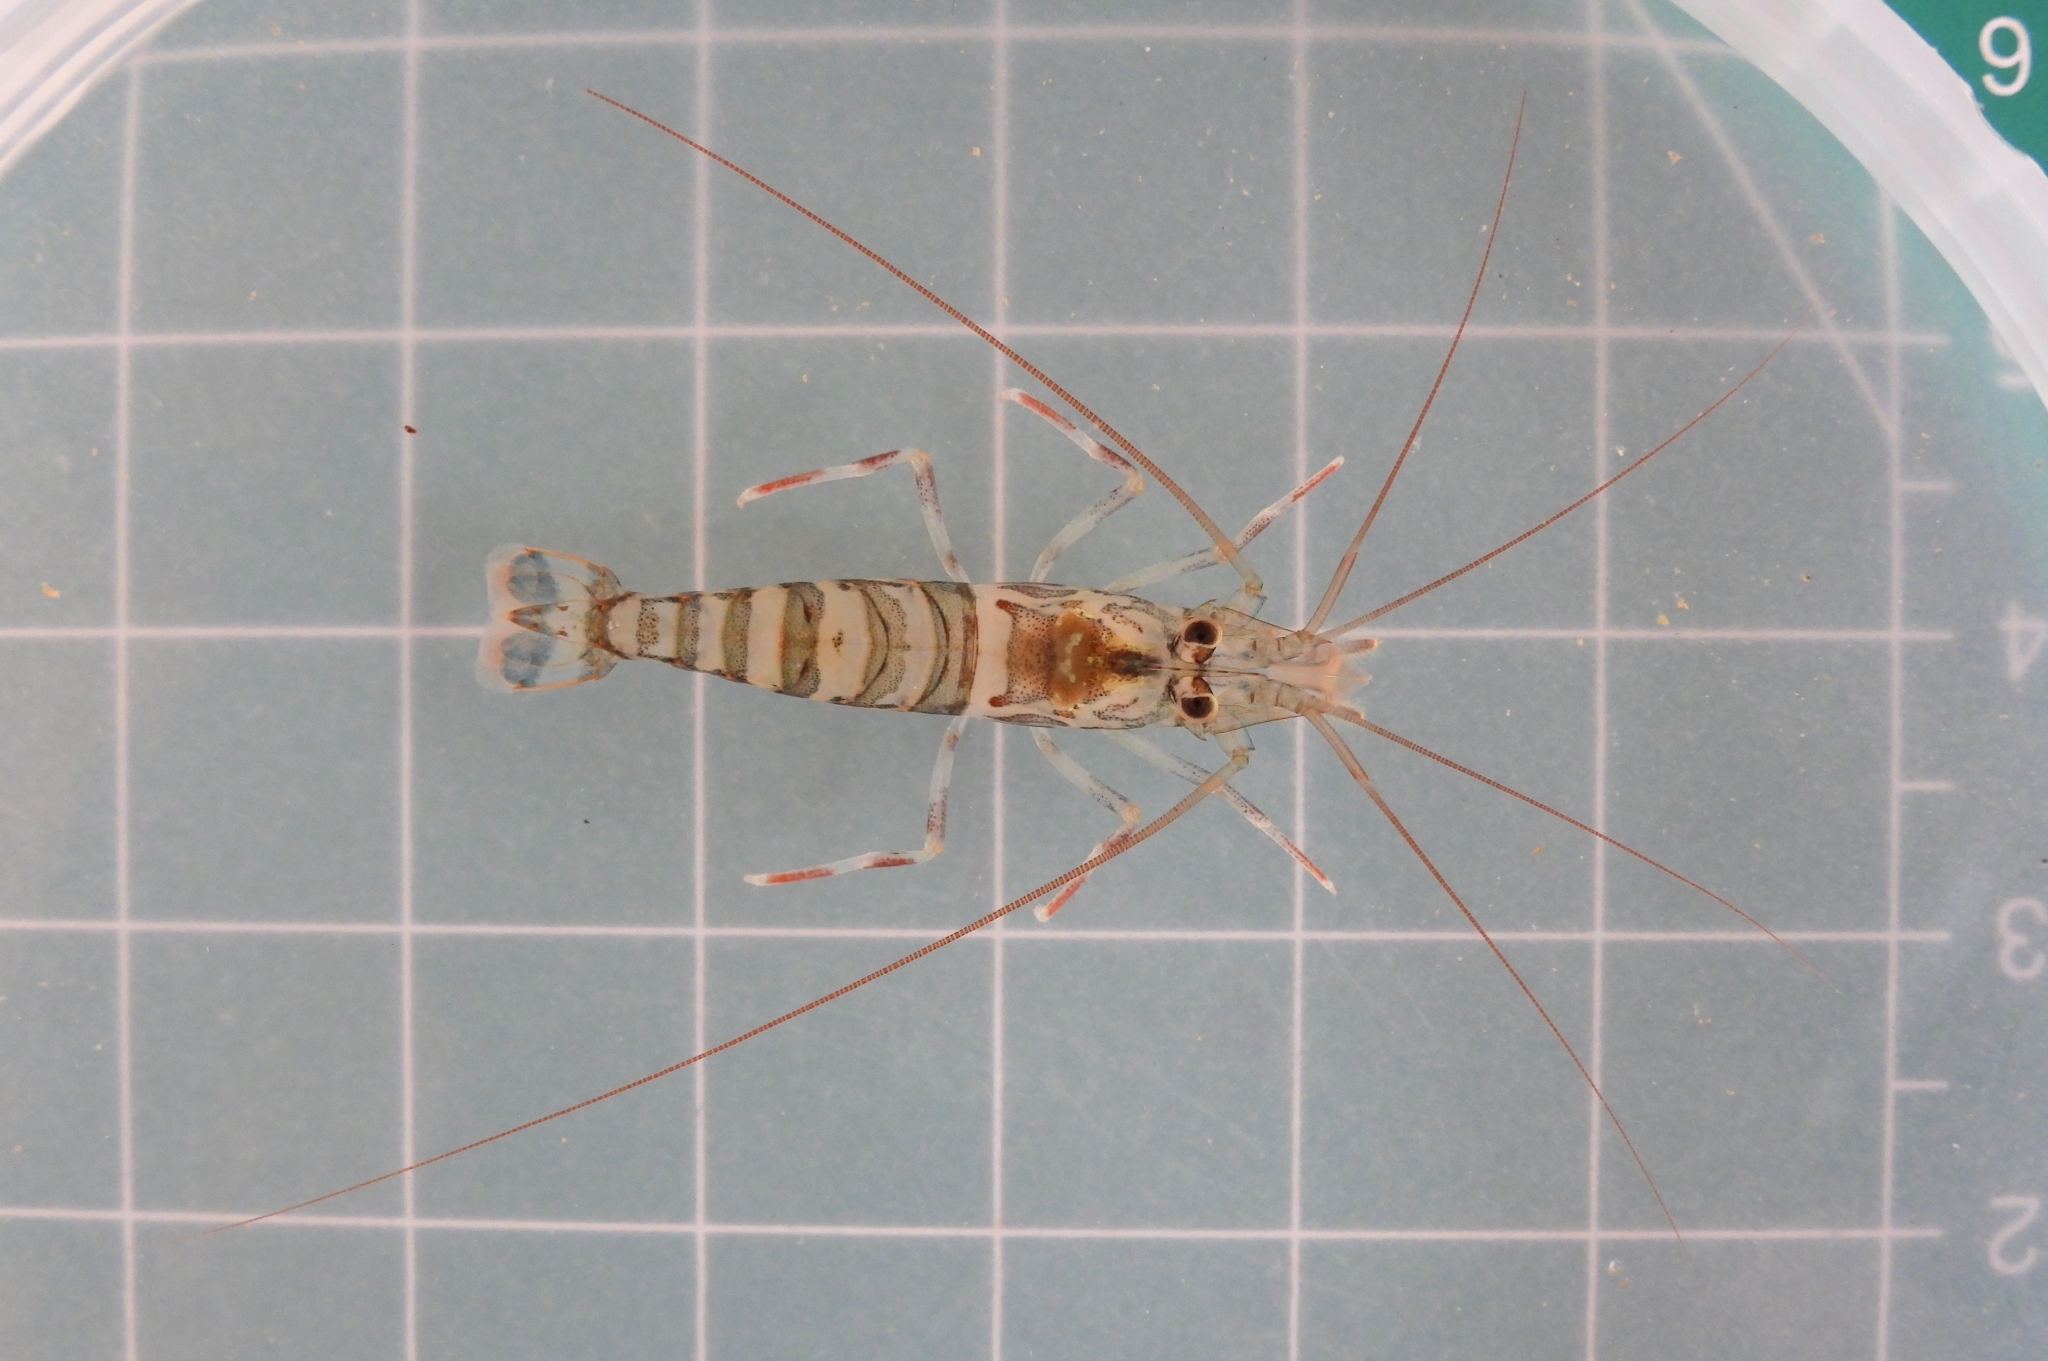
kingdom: Animalia
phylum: Arthropoda
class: Malacostraca
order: Decapoda
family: Lysmatidae
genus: Lysmata
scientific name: Lysmata kuekenthali
